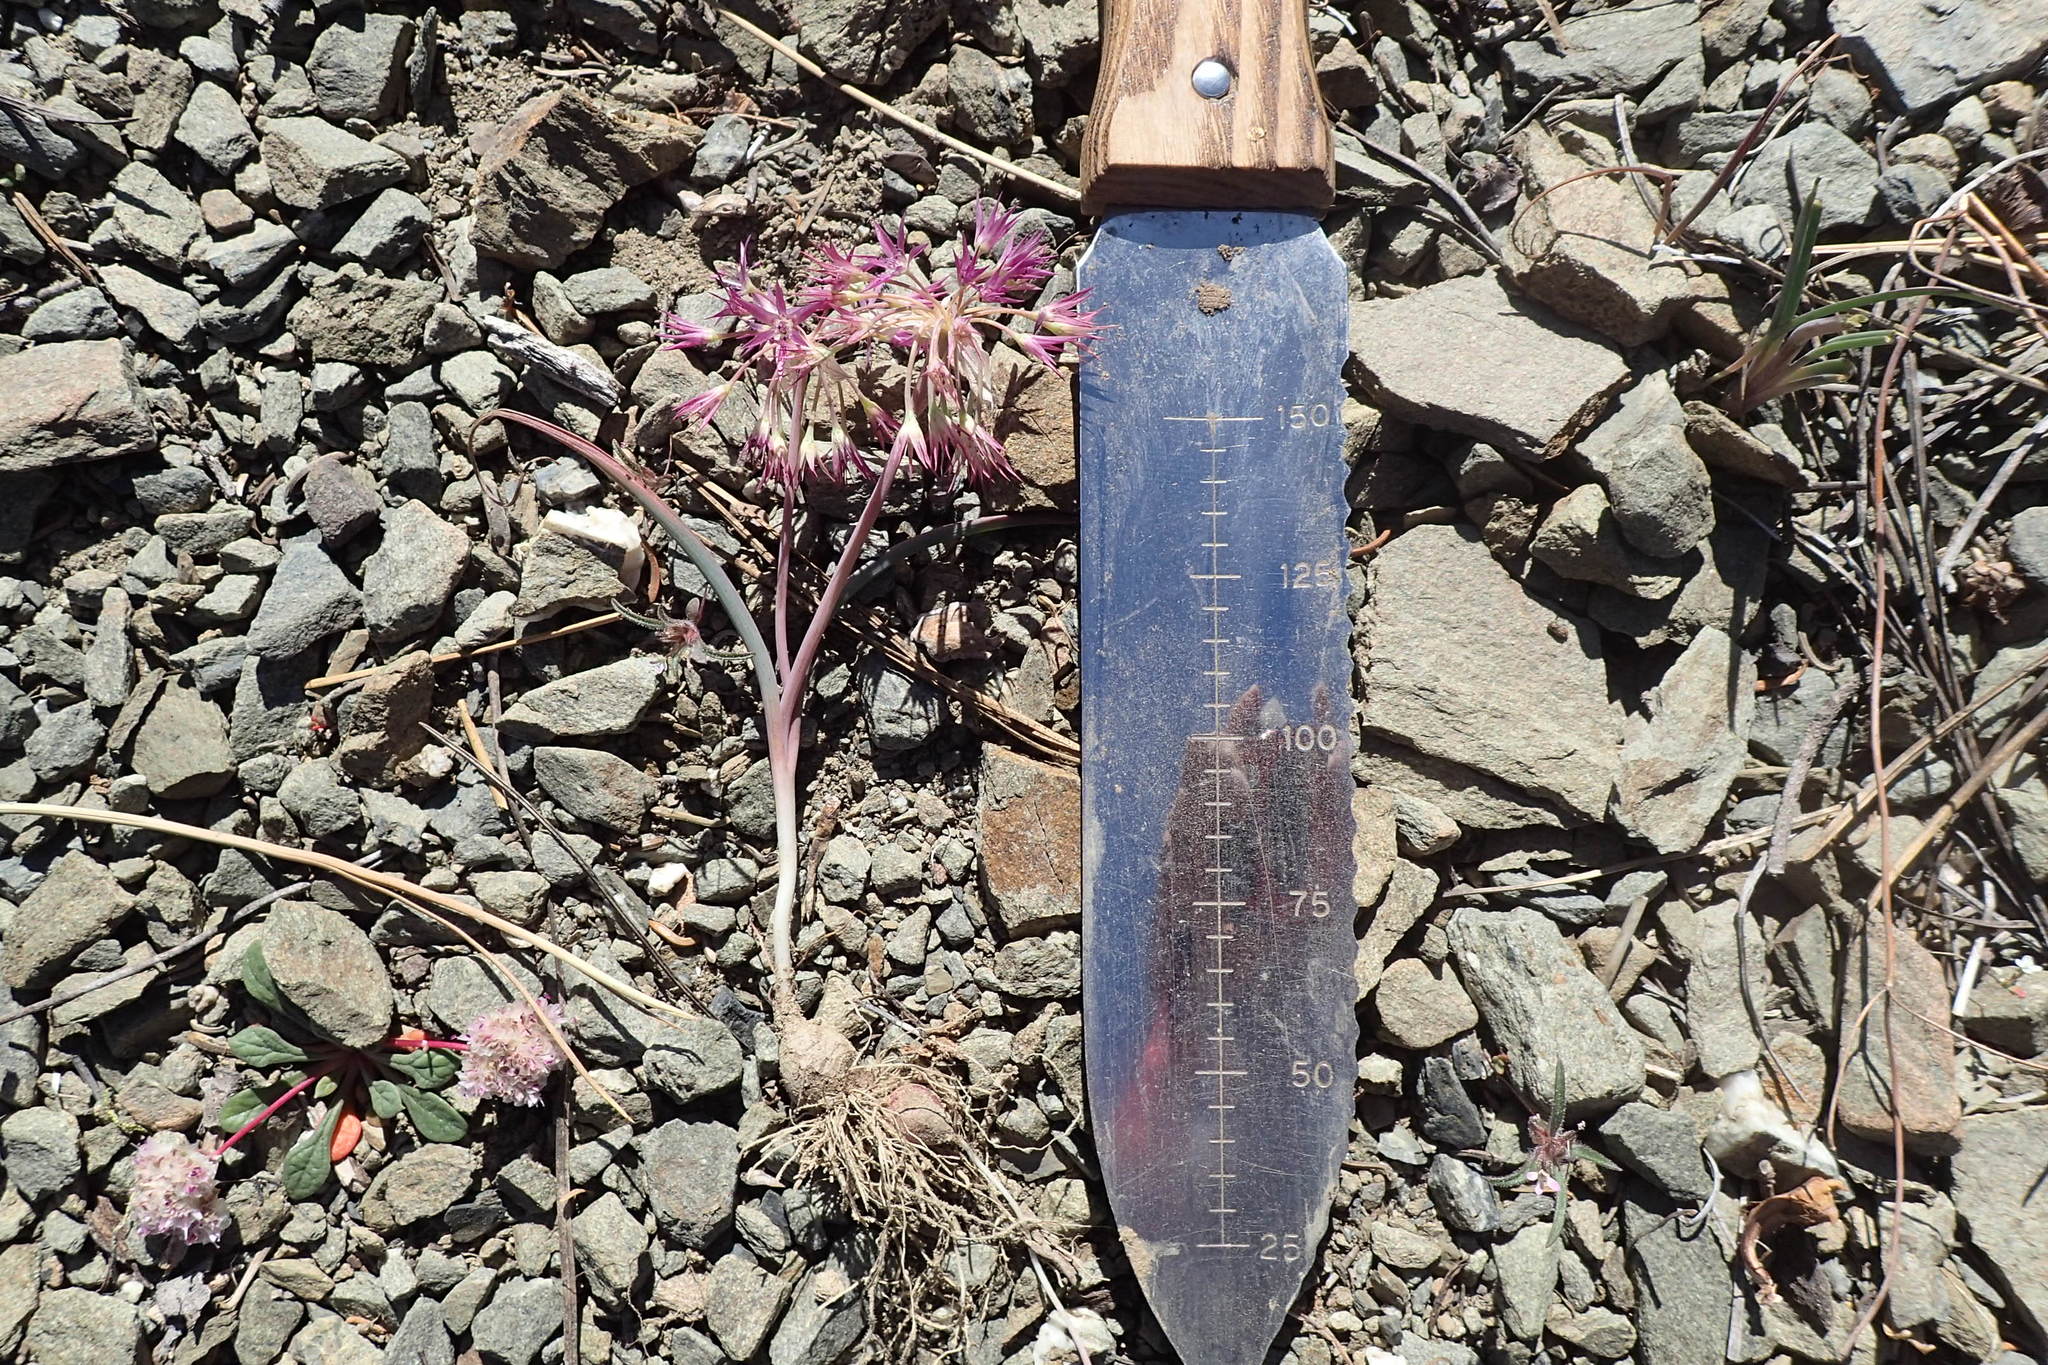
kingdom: Plantae
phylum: Tracheophyta
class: Liliopsida
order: Asparagales
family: Amaryllidaceae
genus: Allium
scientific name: Allium campanulatum
